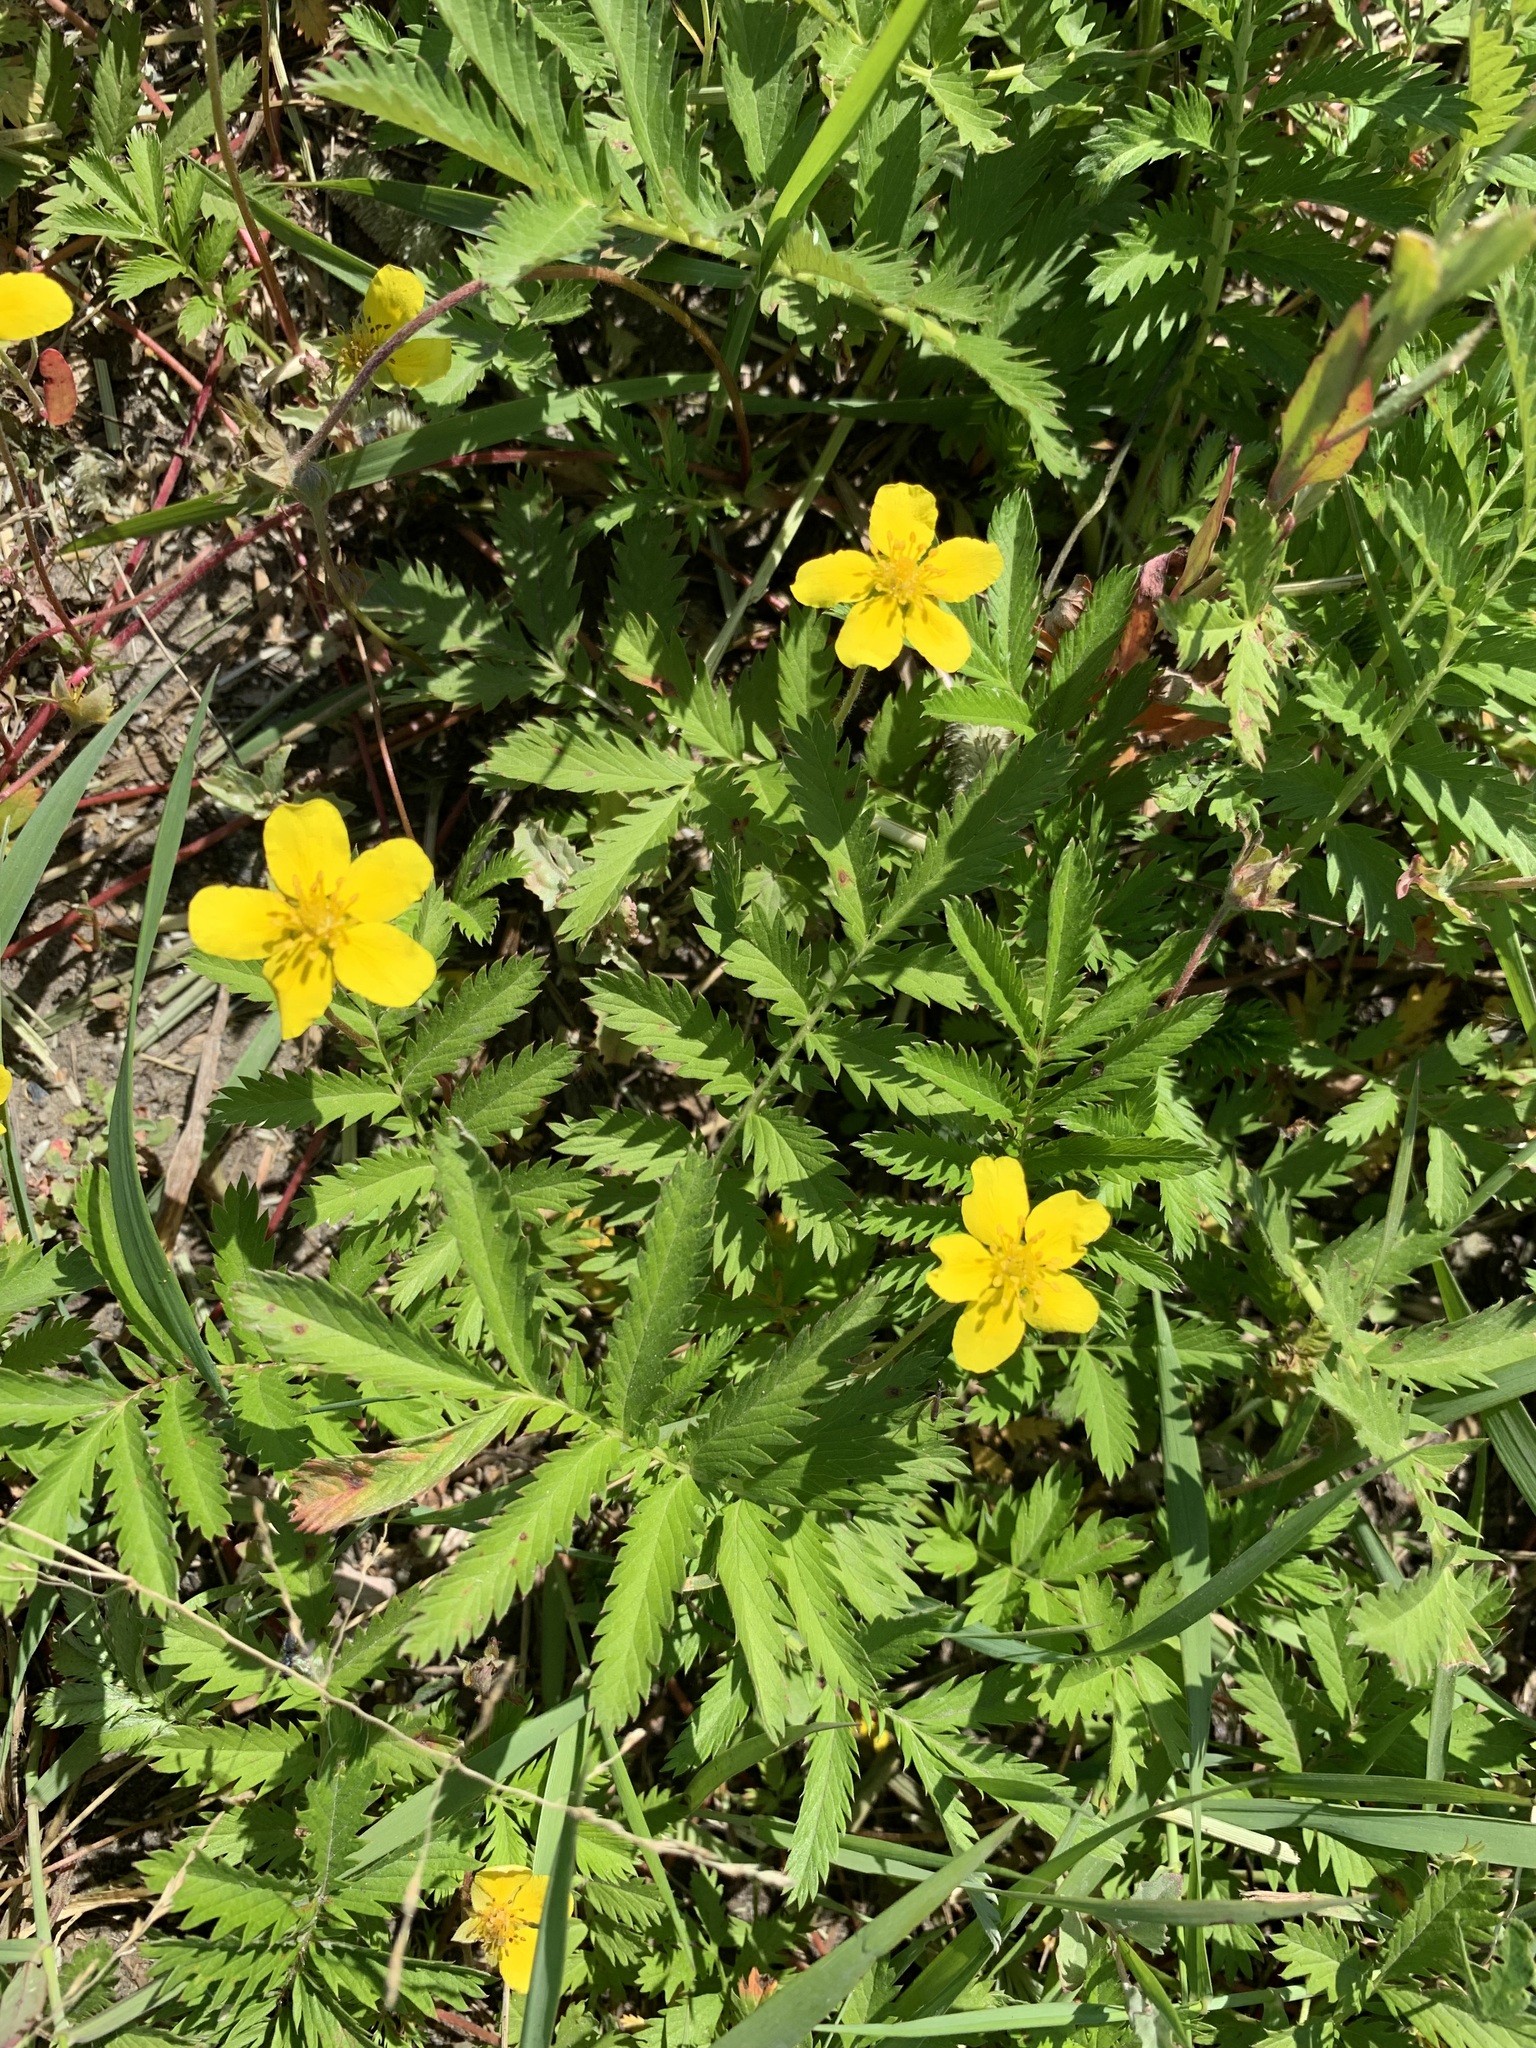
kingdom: Plantae
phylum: Tracheophyta
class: Magnoliopsida
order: Rosales
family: Rosaceae
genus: Argentina
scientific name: Argentina anserina
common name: Common silverweed
